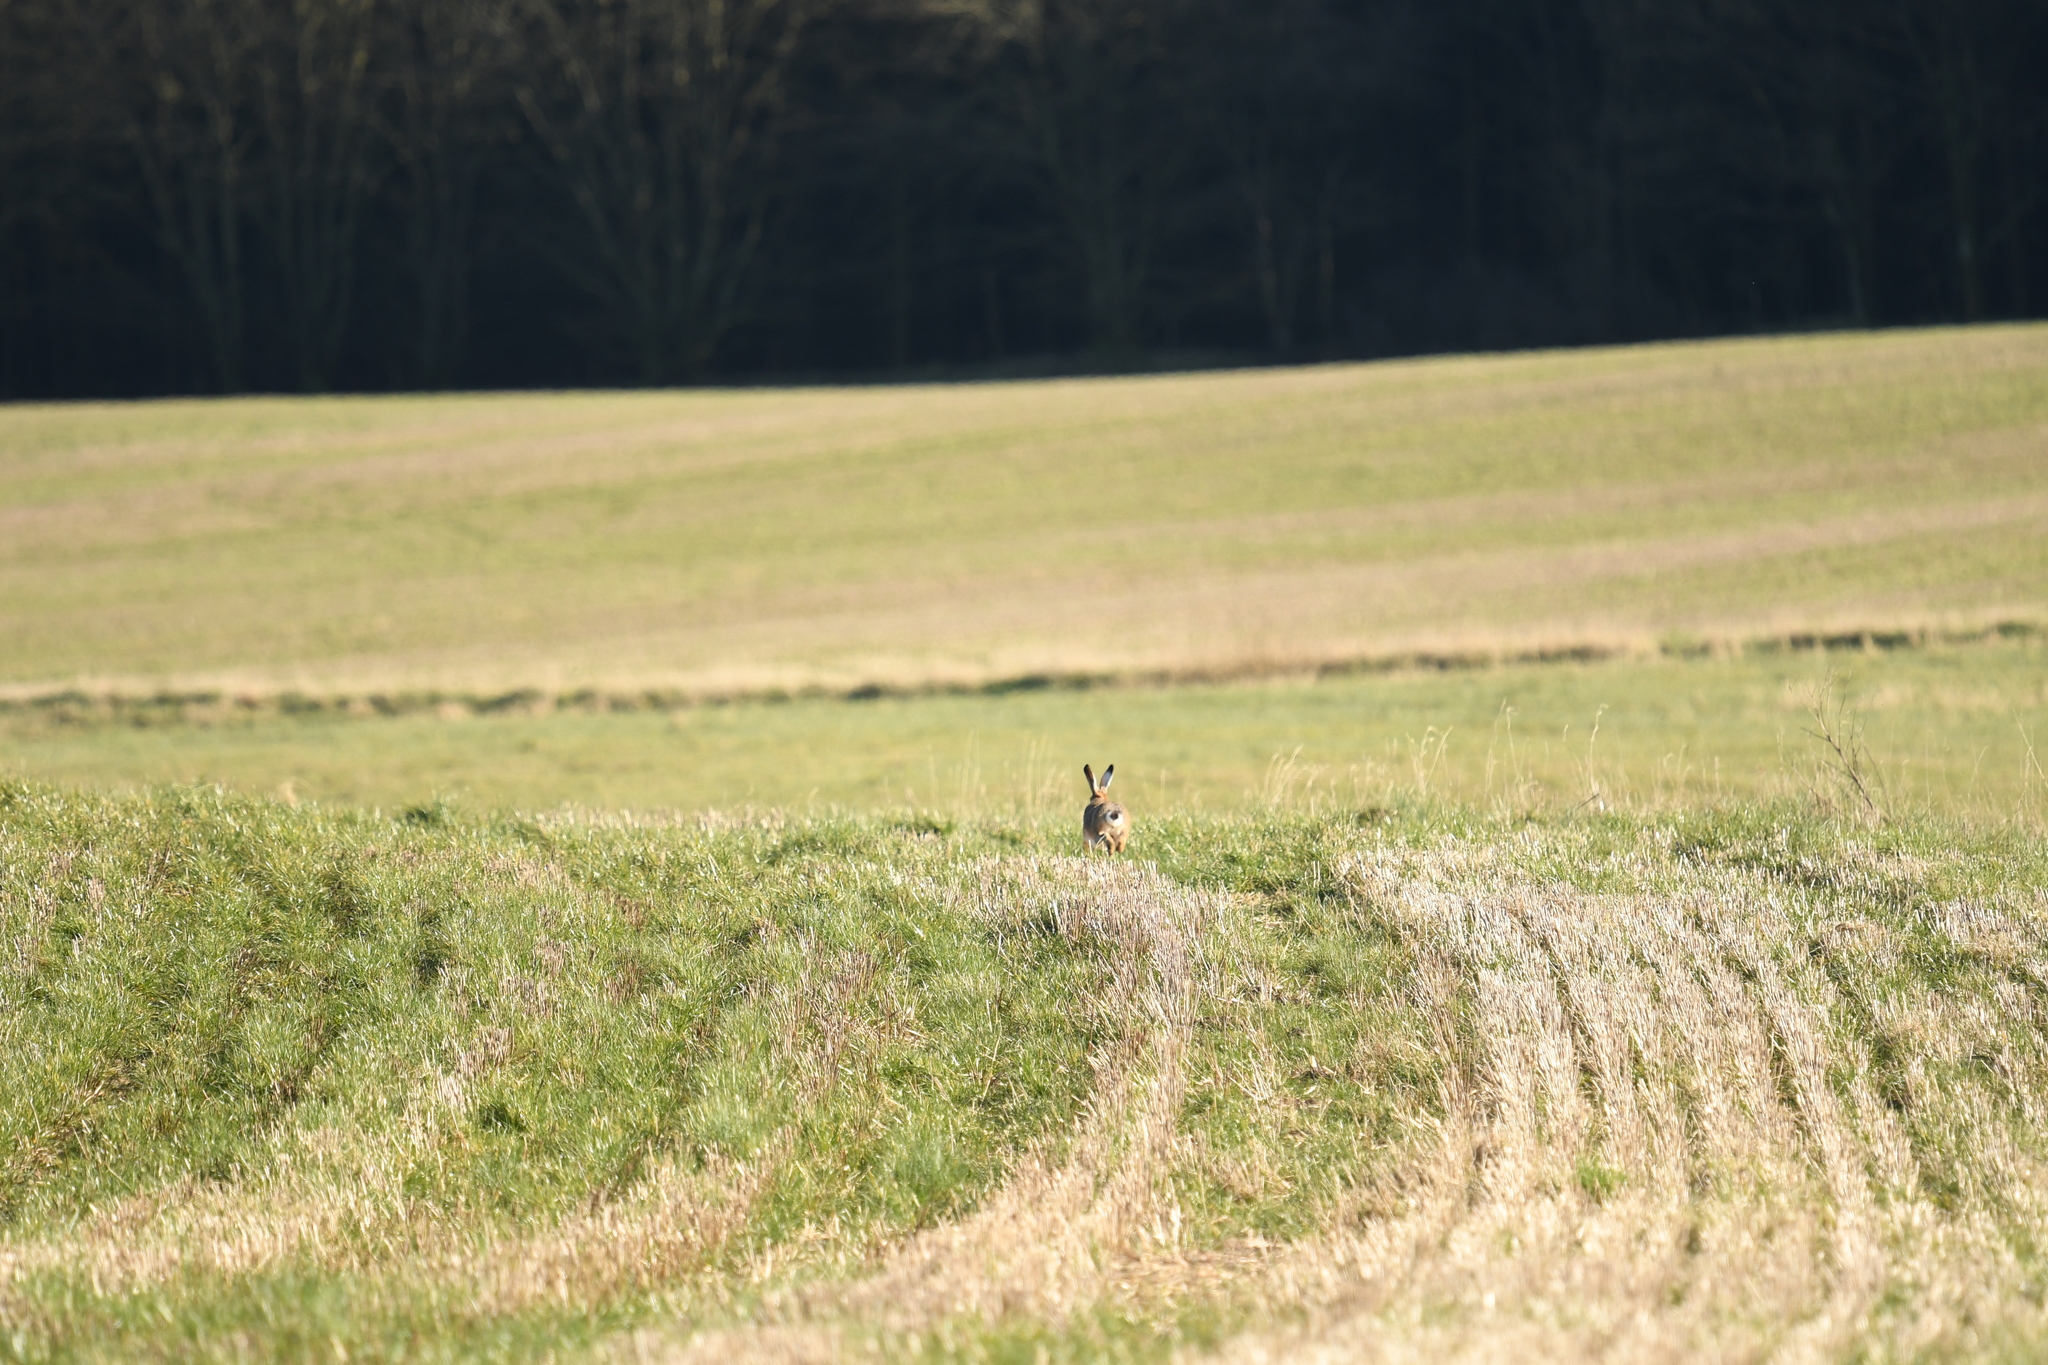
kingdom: Animalia
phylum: Chordata
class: Mammalia
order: Lagomorpha
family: Leporidae
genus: Lepus
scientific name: Lepus europaeus
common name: European hare
